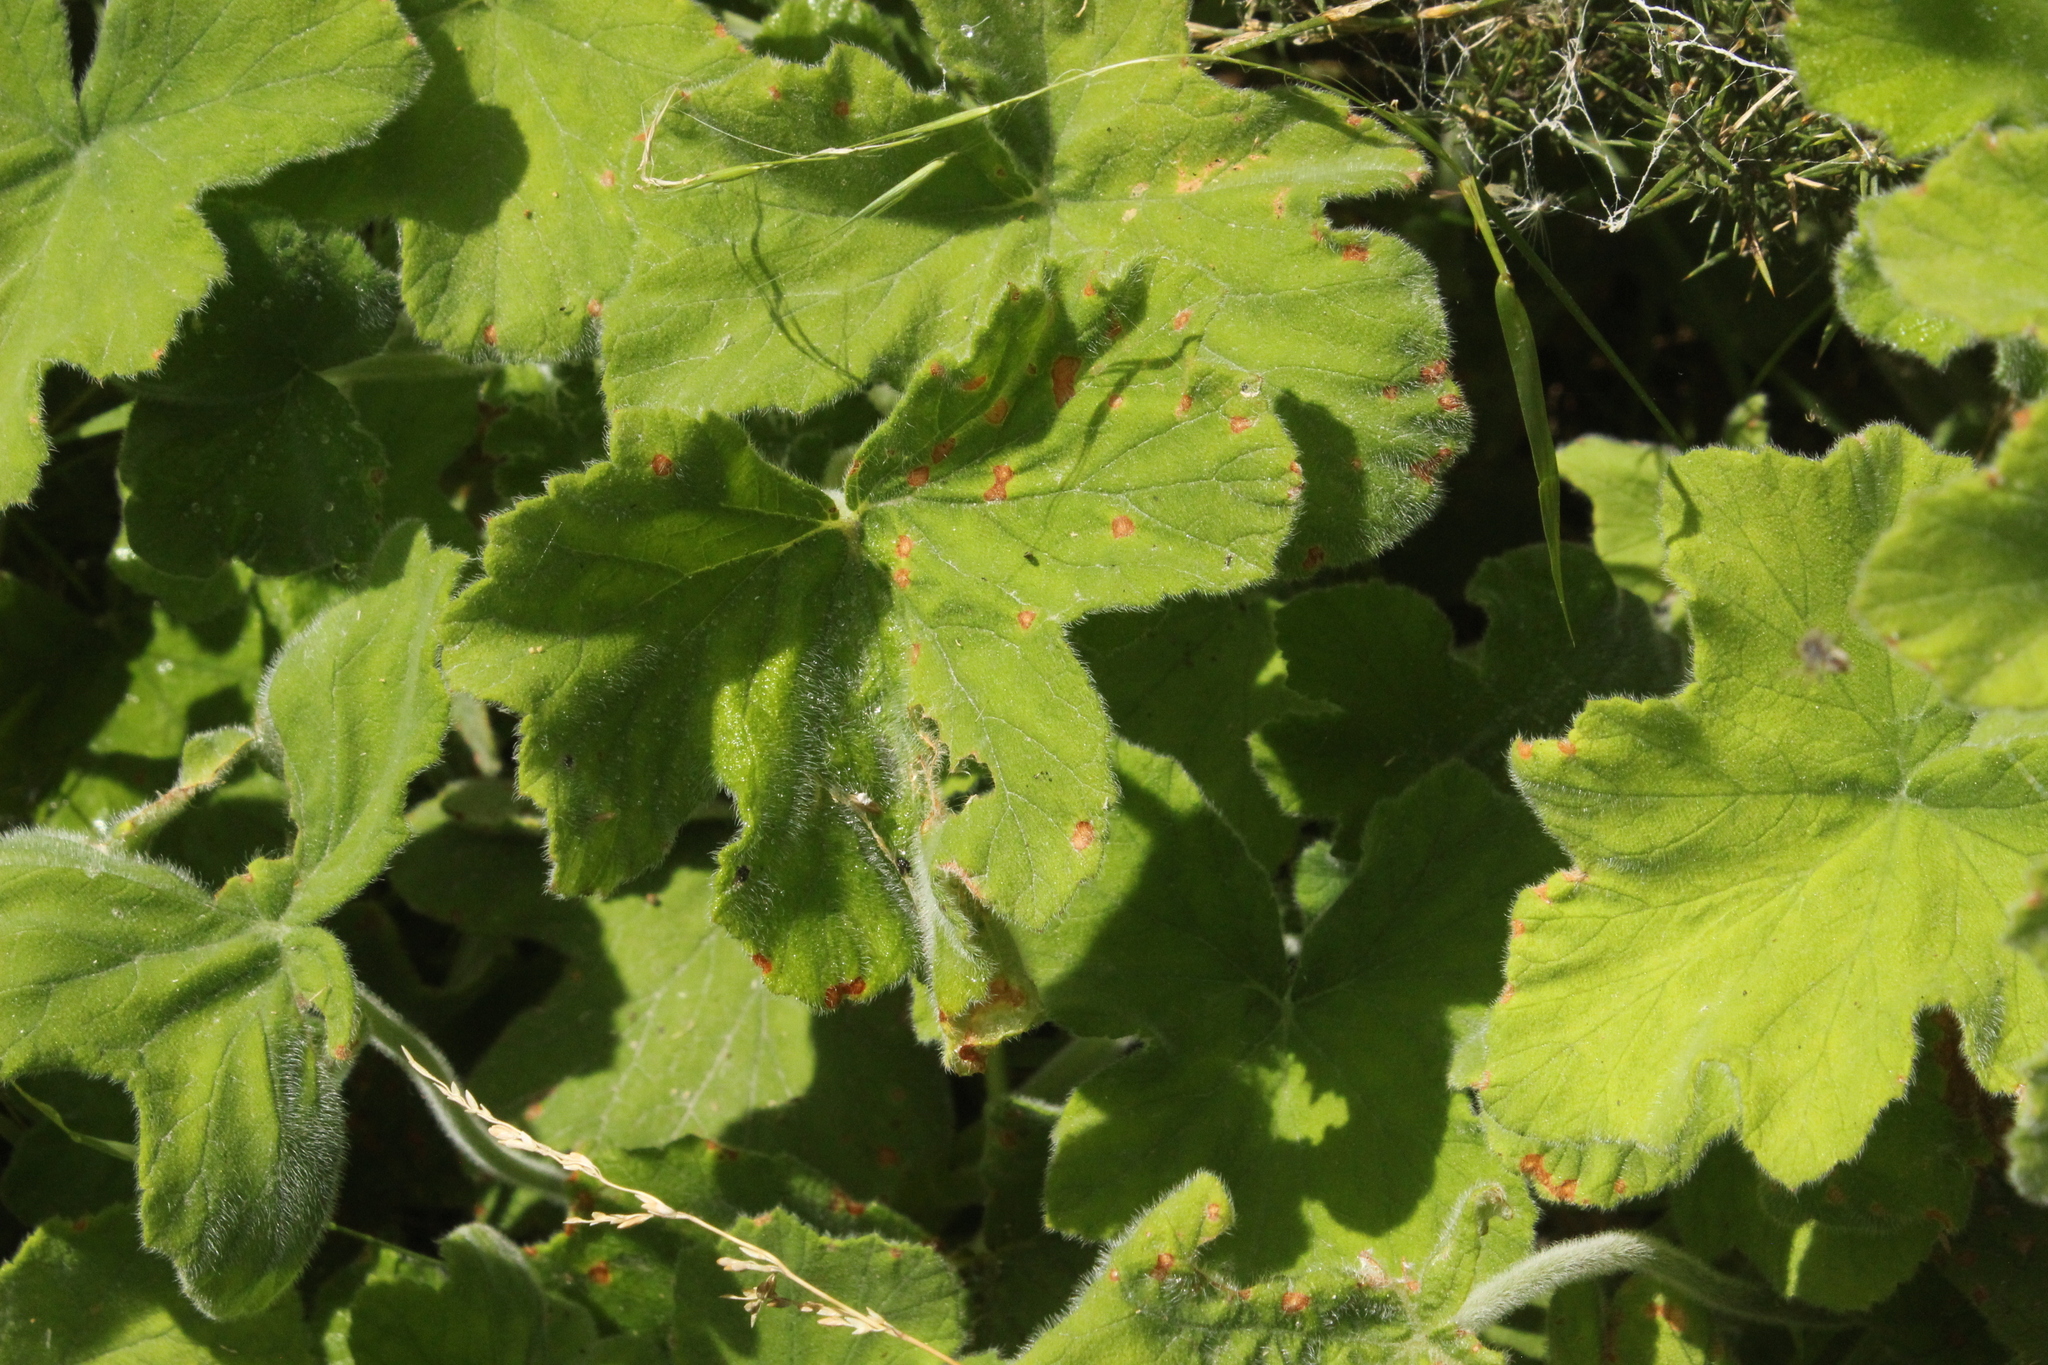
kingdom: Plantae
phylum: Tracheophyta
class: Magnoliopsida
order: Geraniales
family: Geraniaceae
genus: Pelargonium
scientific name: Pelargonium tomentosum
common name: Peppermint-scented geranium
